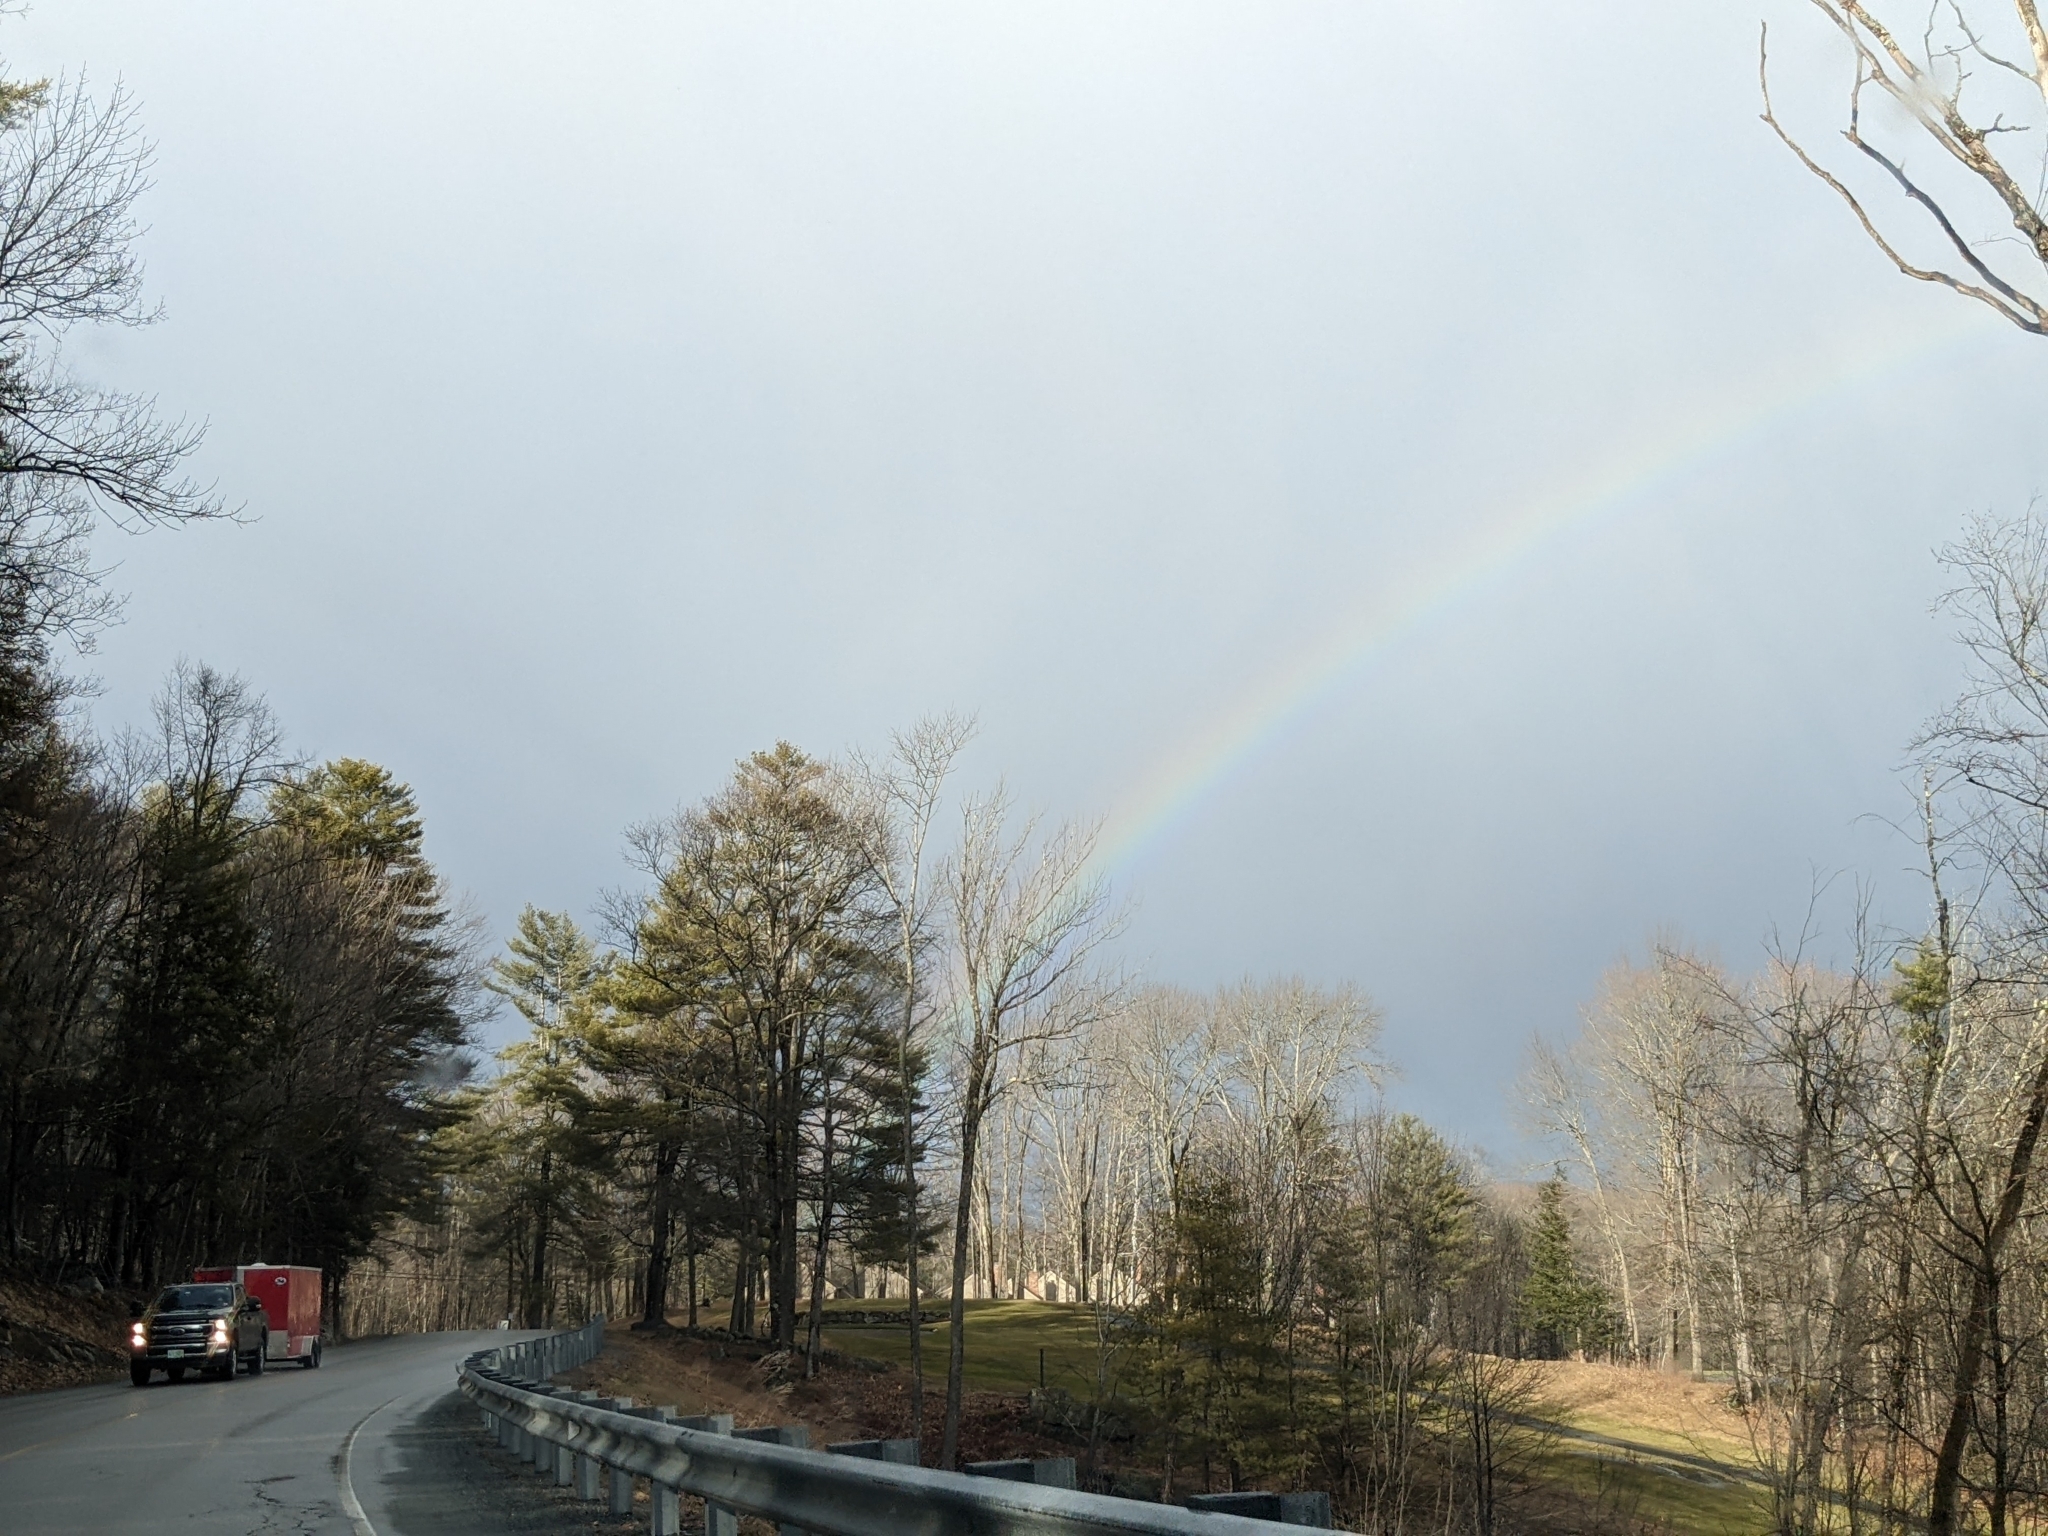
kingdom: Plantae
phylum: Tracheophyta
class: Pinopsida
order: Pinales
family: Pinaceae
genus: Pinus
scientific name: Pinus strobus
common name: Weymouth pine
